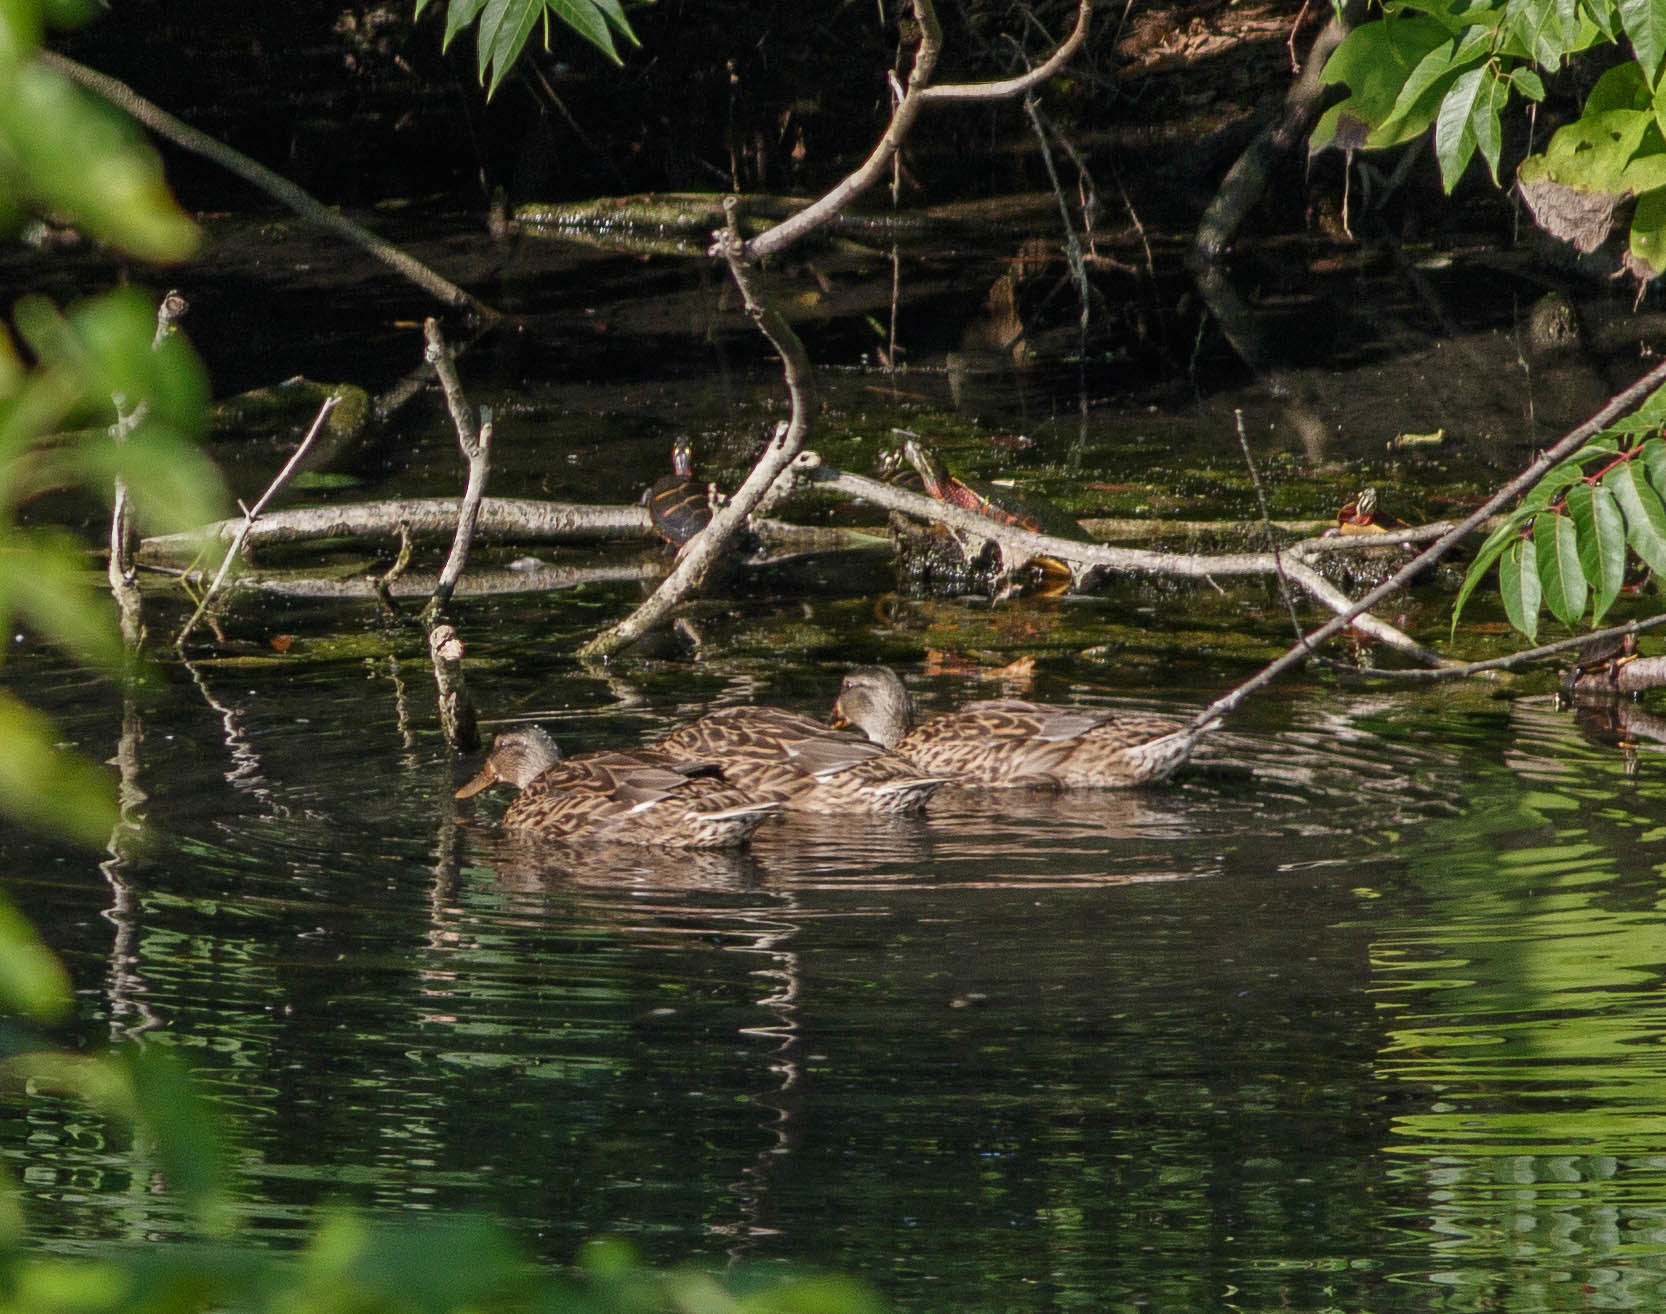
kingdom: Animalia
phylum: Chordata
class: Aves
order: Anseriformes
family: Anatidae
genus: Anas
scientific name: Anas platyrhynchos
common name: Mallard
